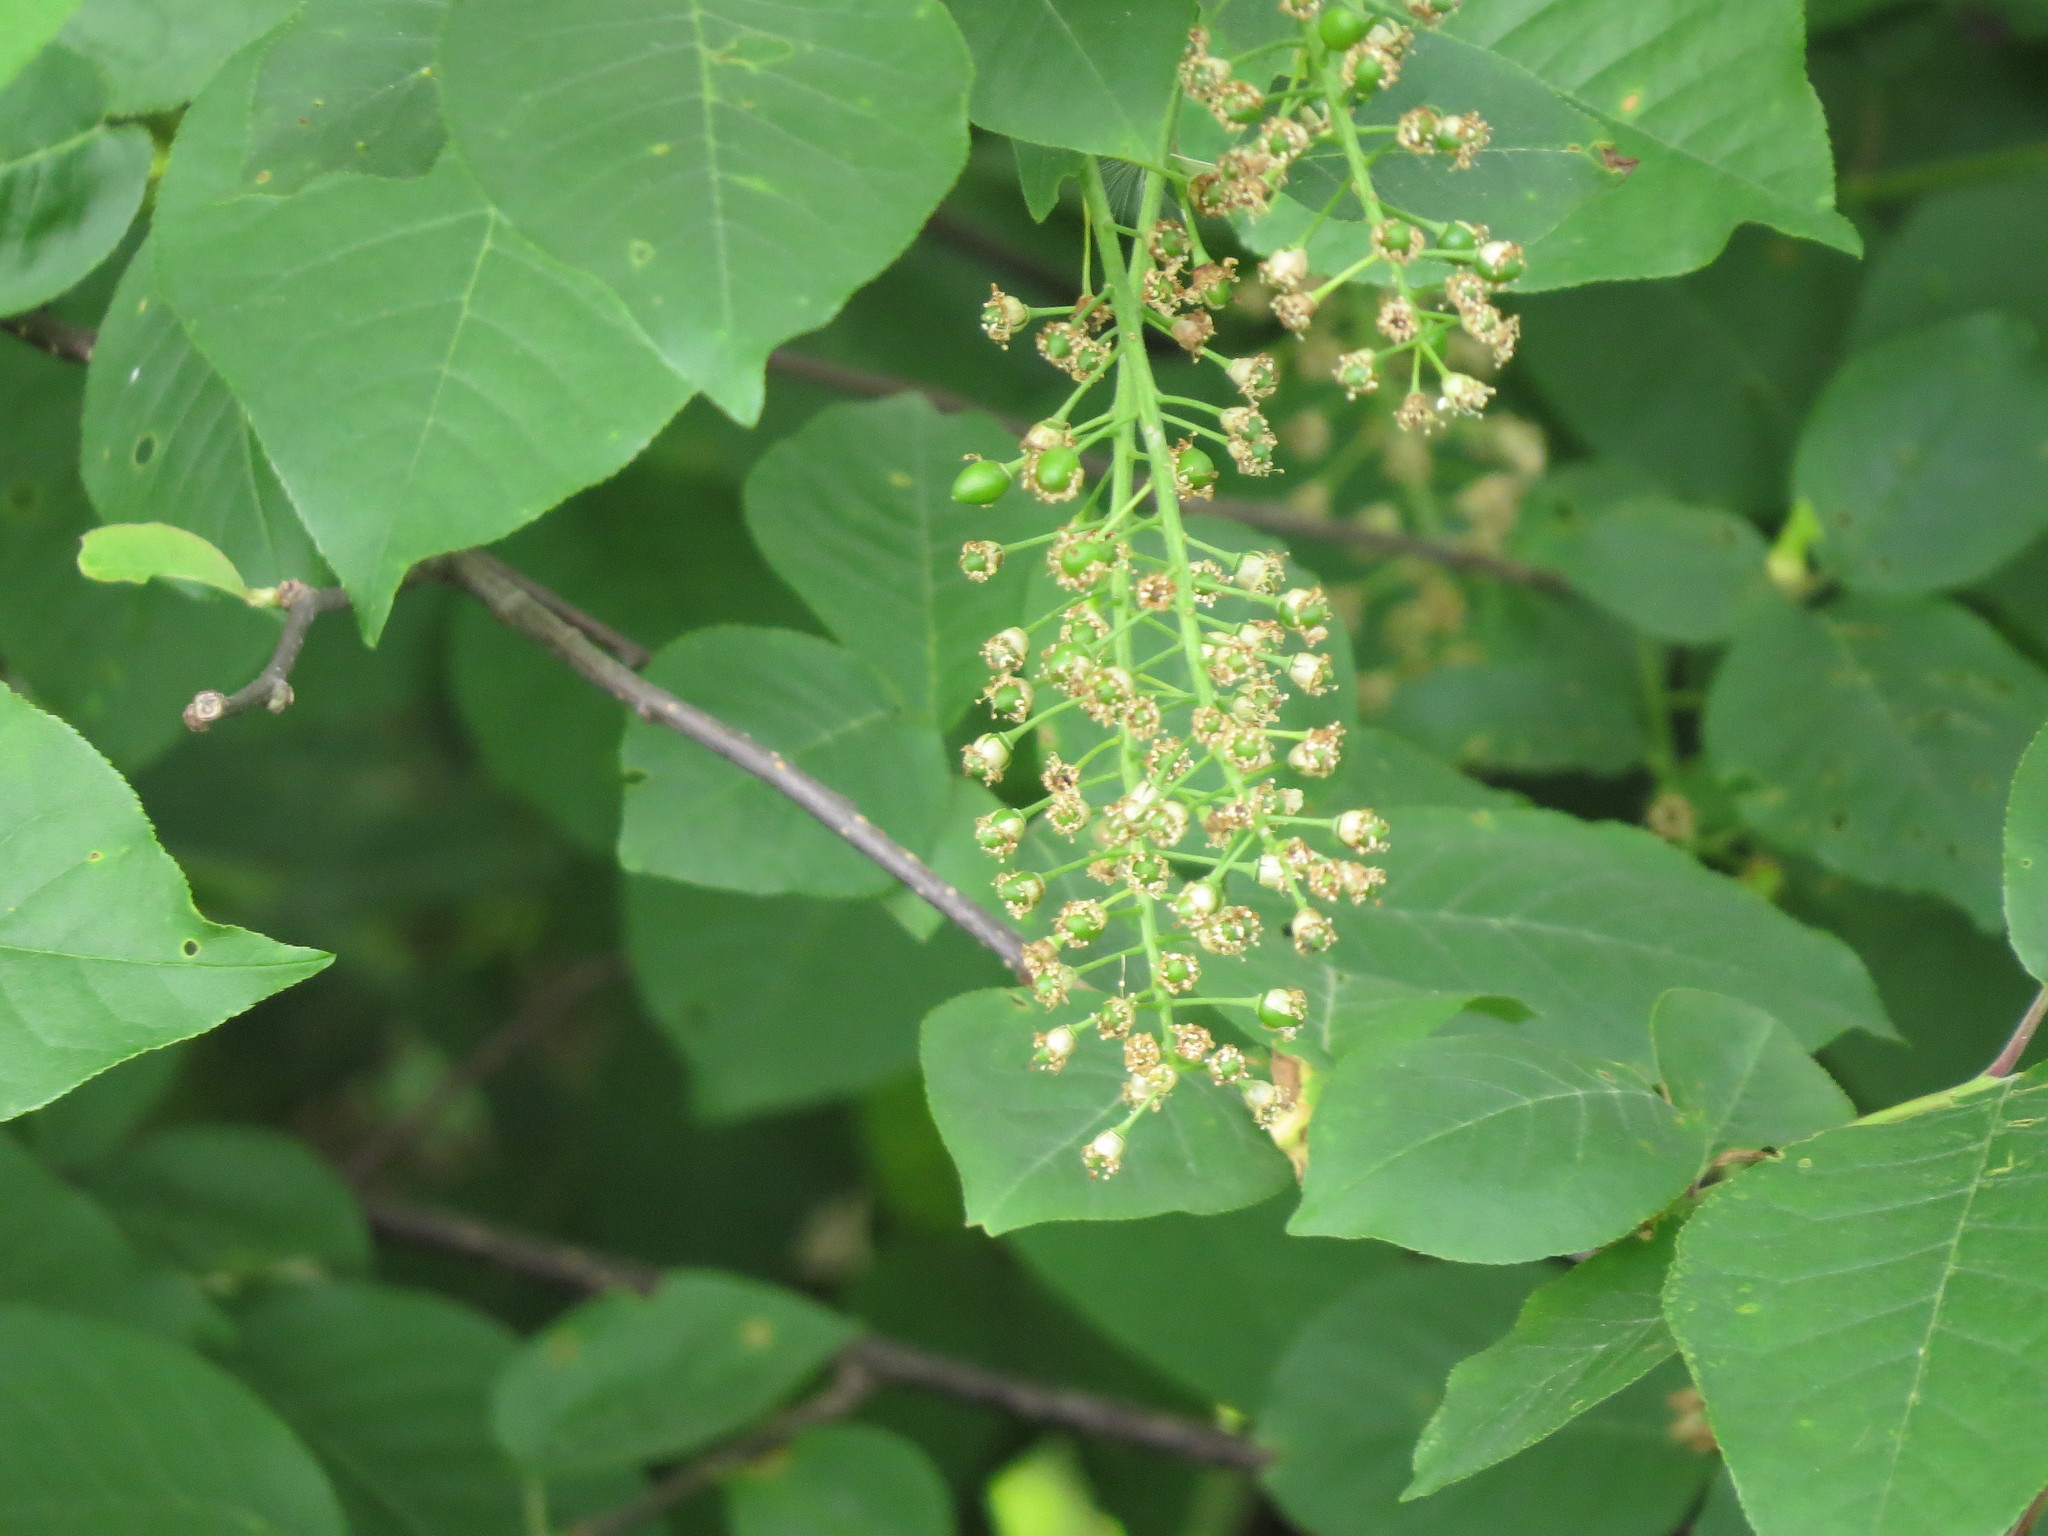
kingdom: Plantae
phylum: Tracheophyta
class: Magnoliopsida
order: Rosales
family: Rosaceae
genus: Prunus
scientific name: Prunus virginiana
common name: Chokecherry
